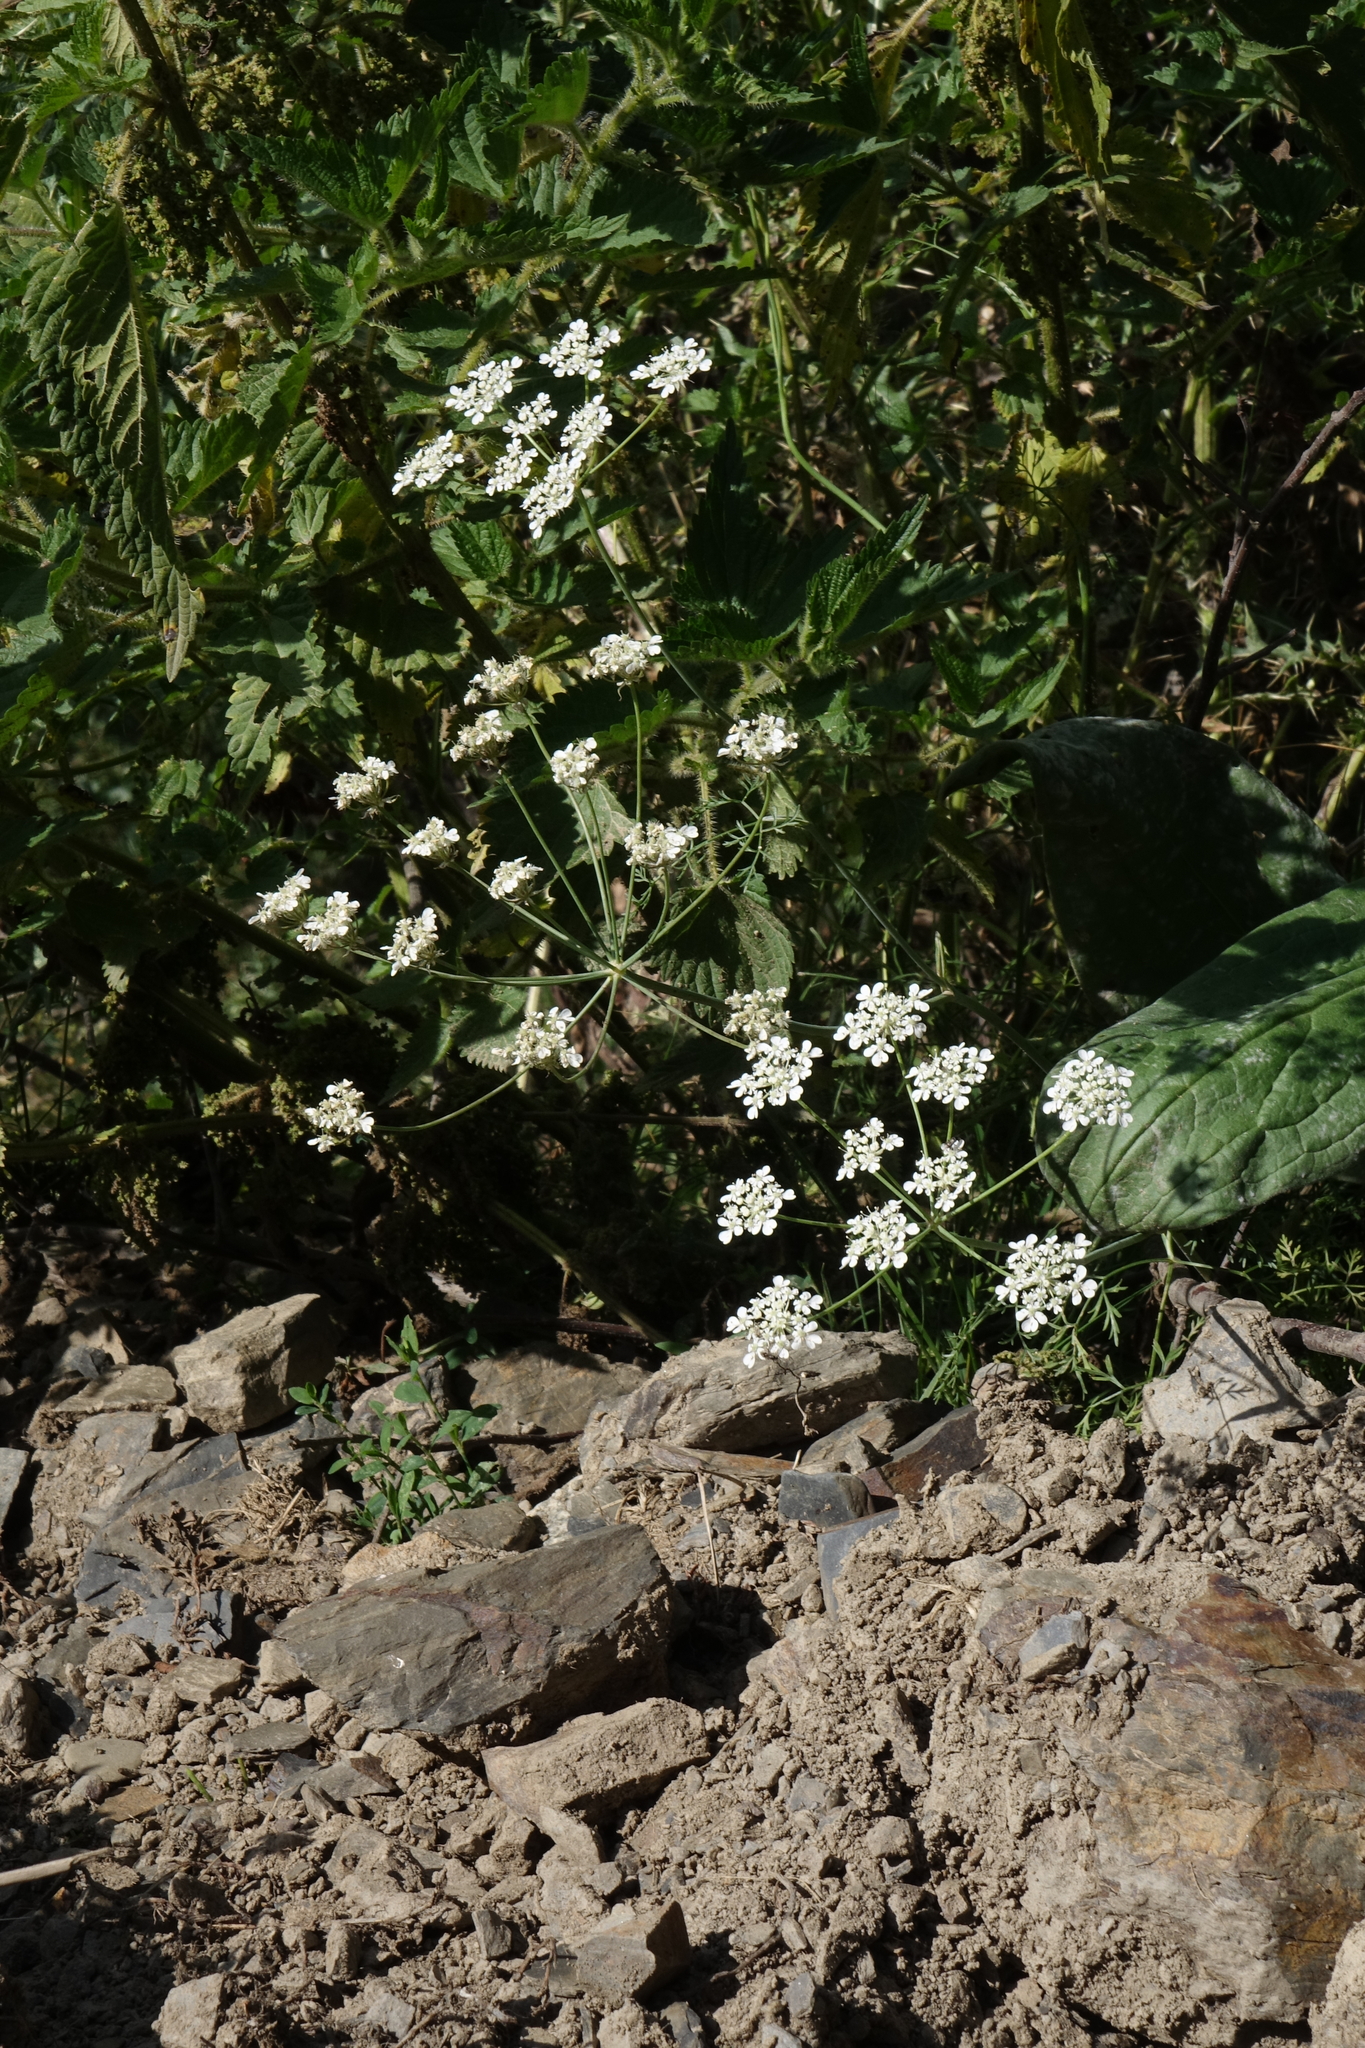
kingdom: Plantae
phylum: Tracheophyta
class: Magnoliopsida
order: Apiales
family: Apiaceae
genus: Astrodaucus
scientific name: Astrodaucus orientalis
